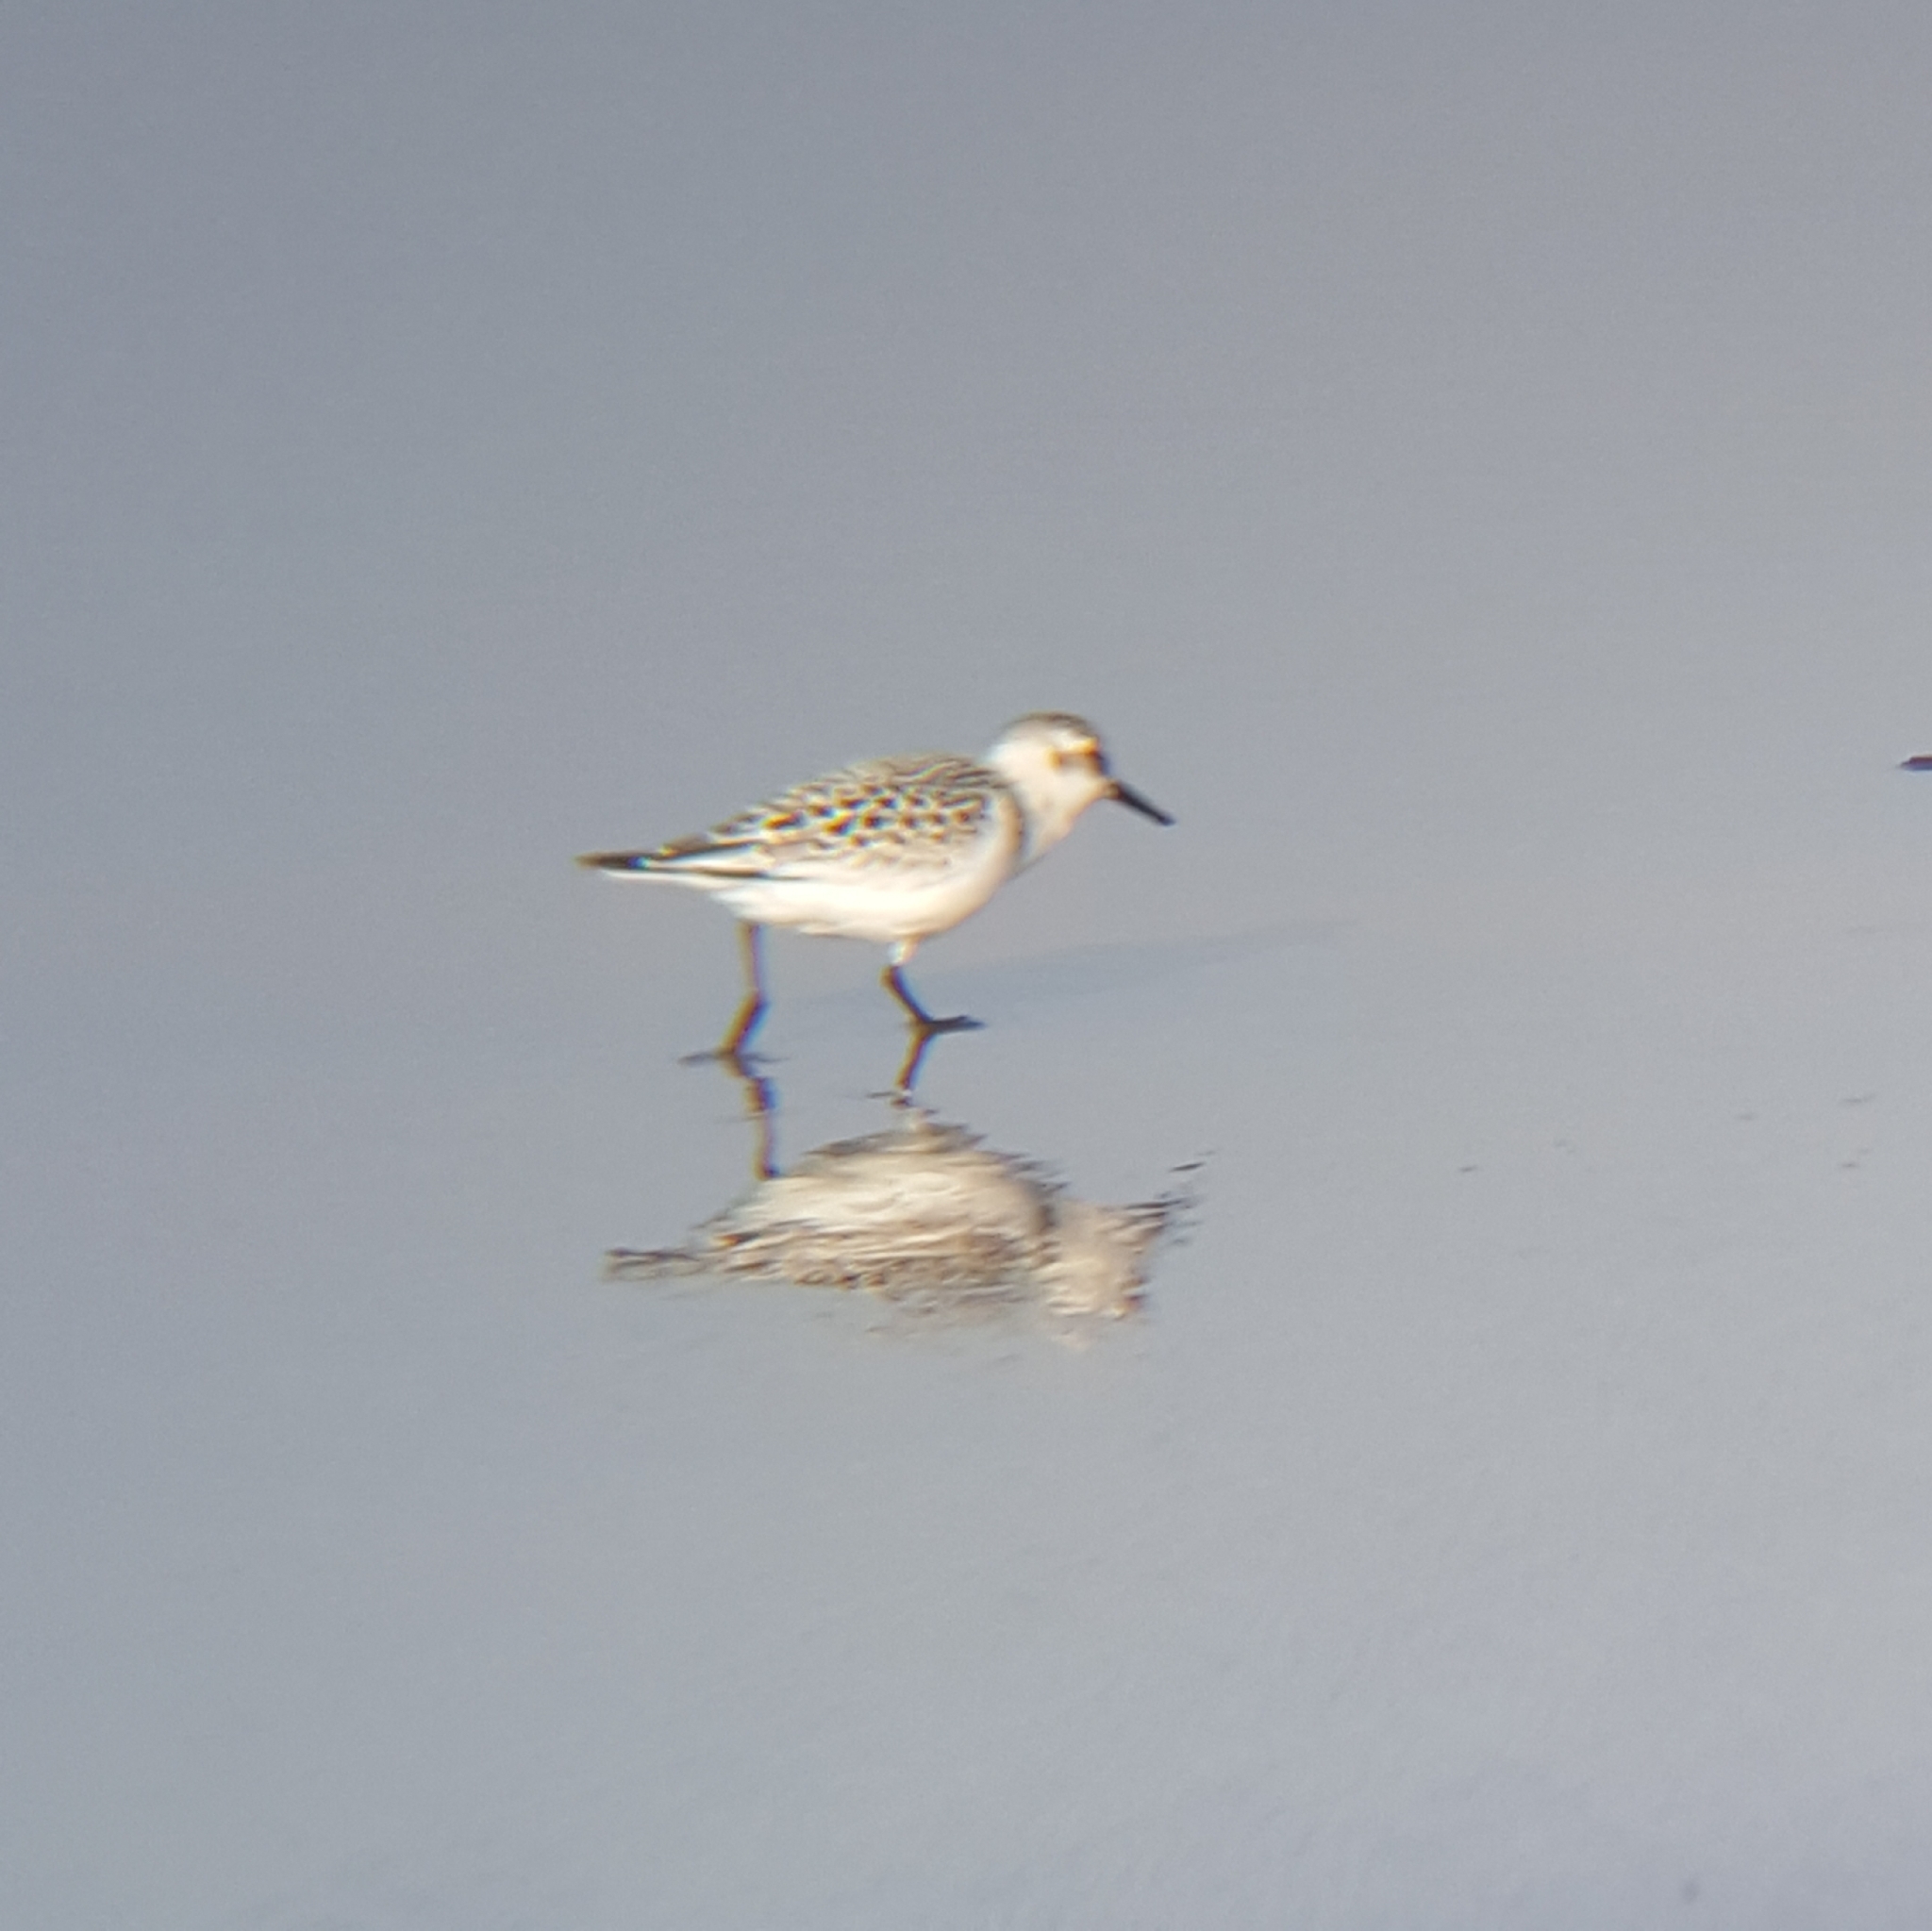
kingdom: Animalia
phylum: Chordata
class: Aves
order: Charadriiformes
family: Scolopacidae
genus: Calidris
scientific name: Calidris alba
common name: Sanderling
